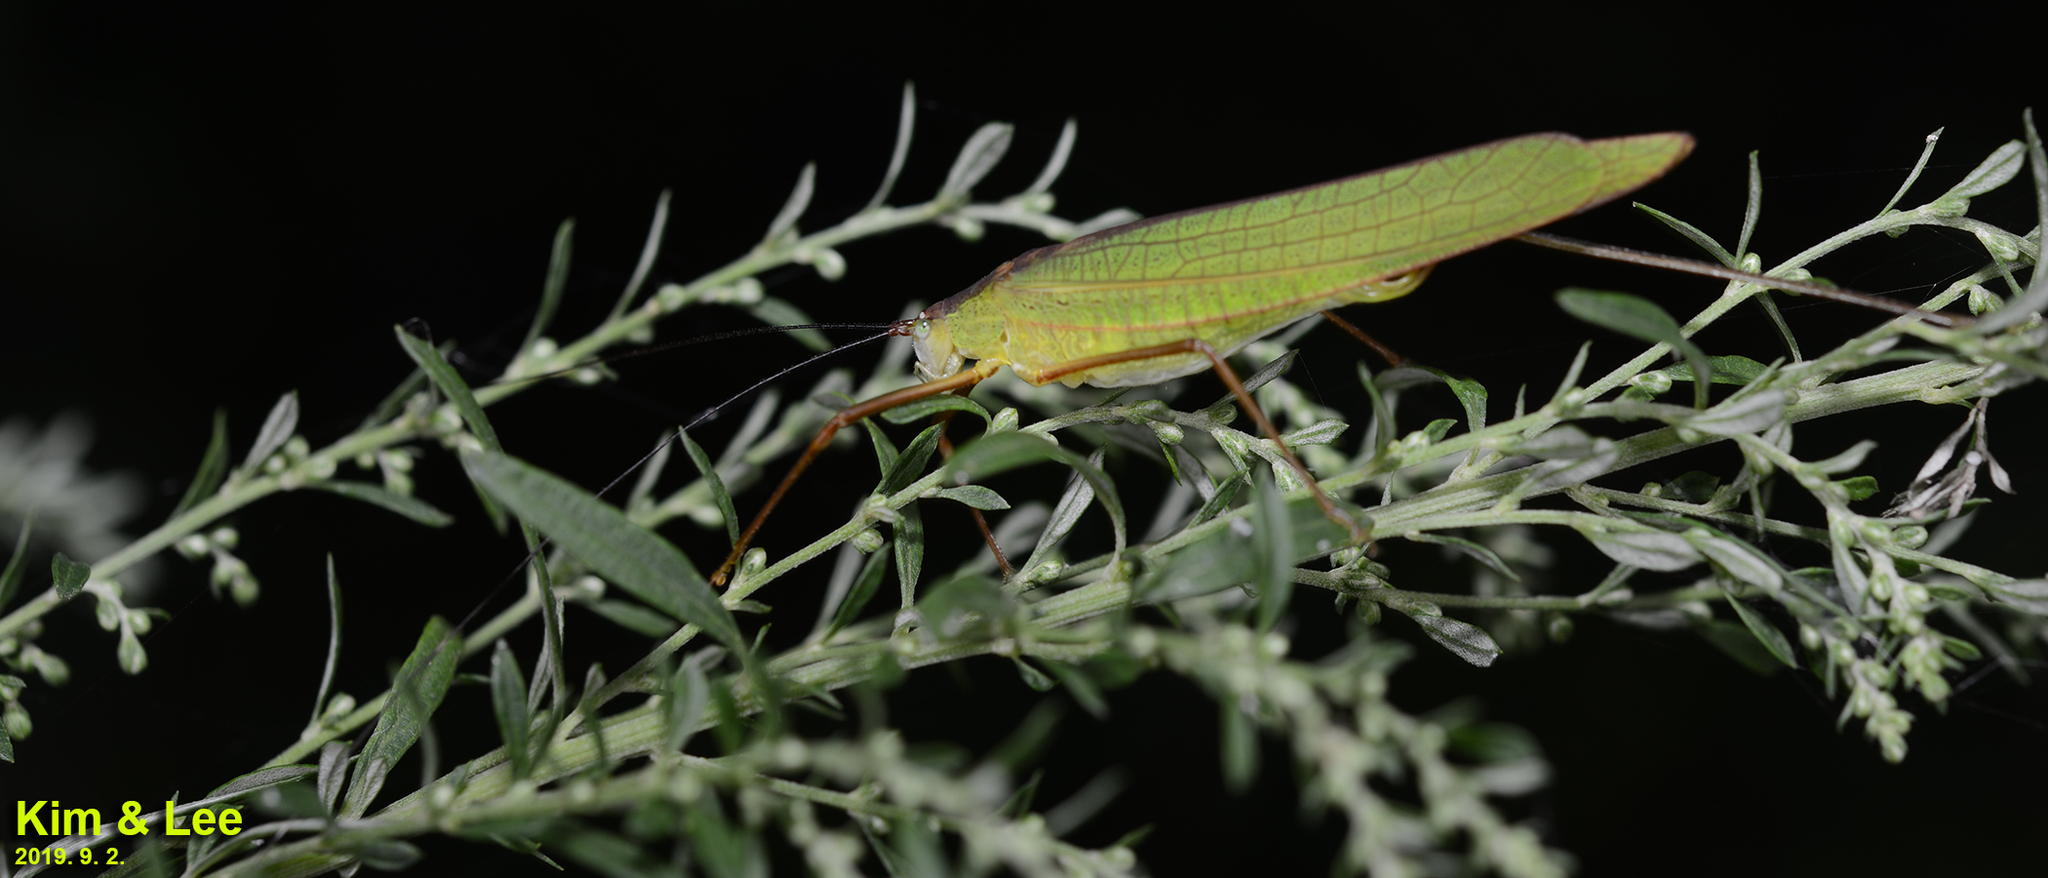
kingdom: Animalia
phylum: Arthropoda
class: Insecta
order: Orthoptera
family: Tettigoniidae
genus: Elimaea
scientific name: Elimaea fallax
